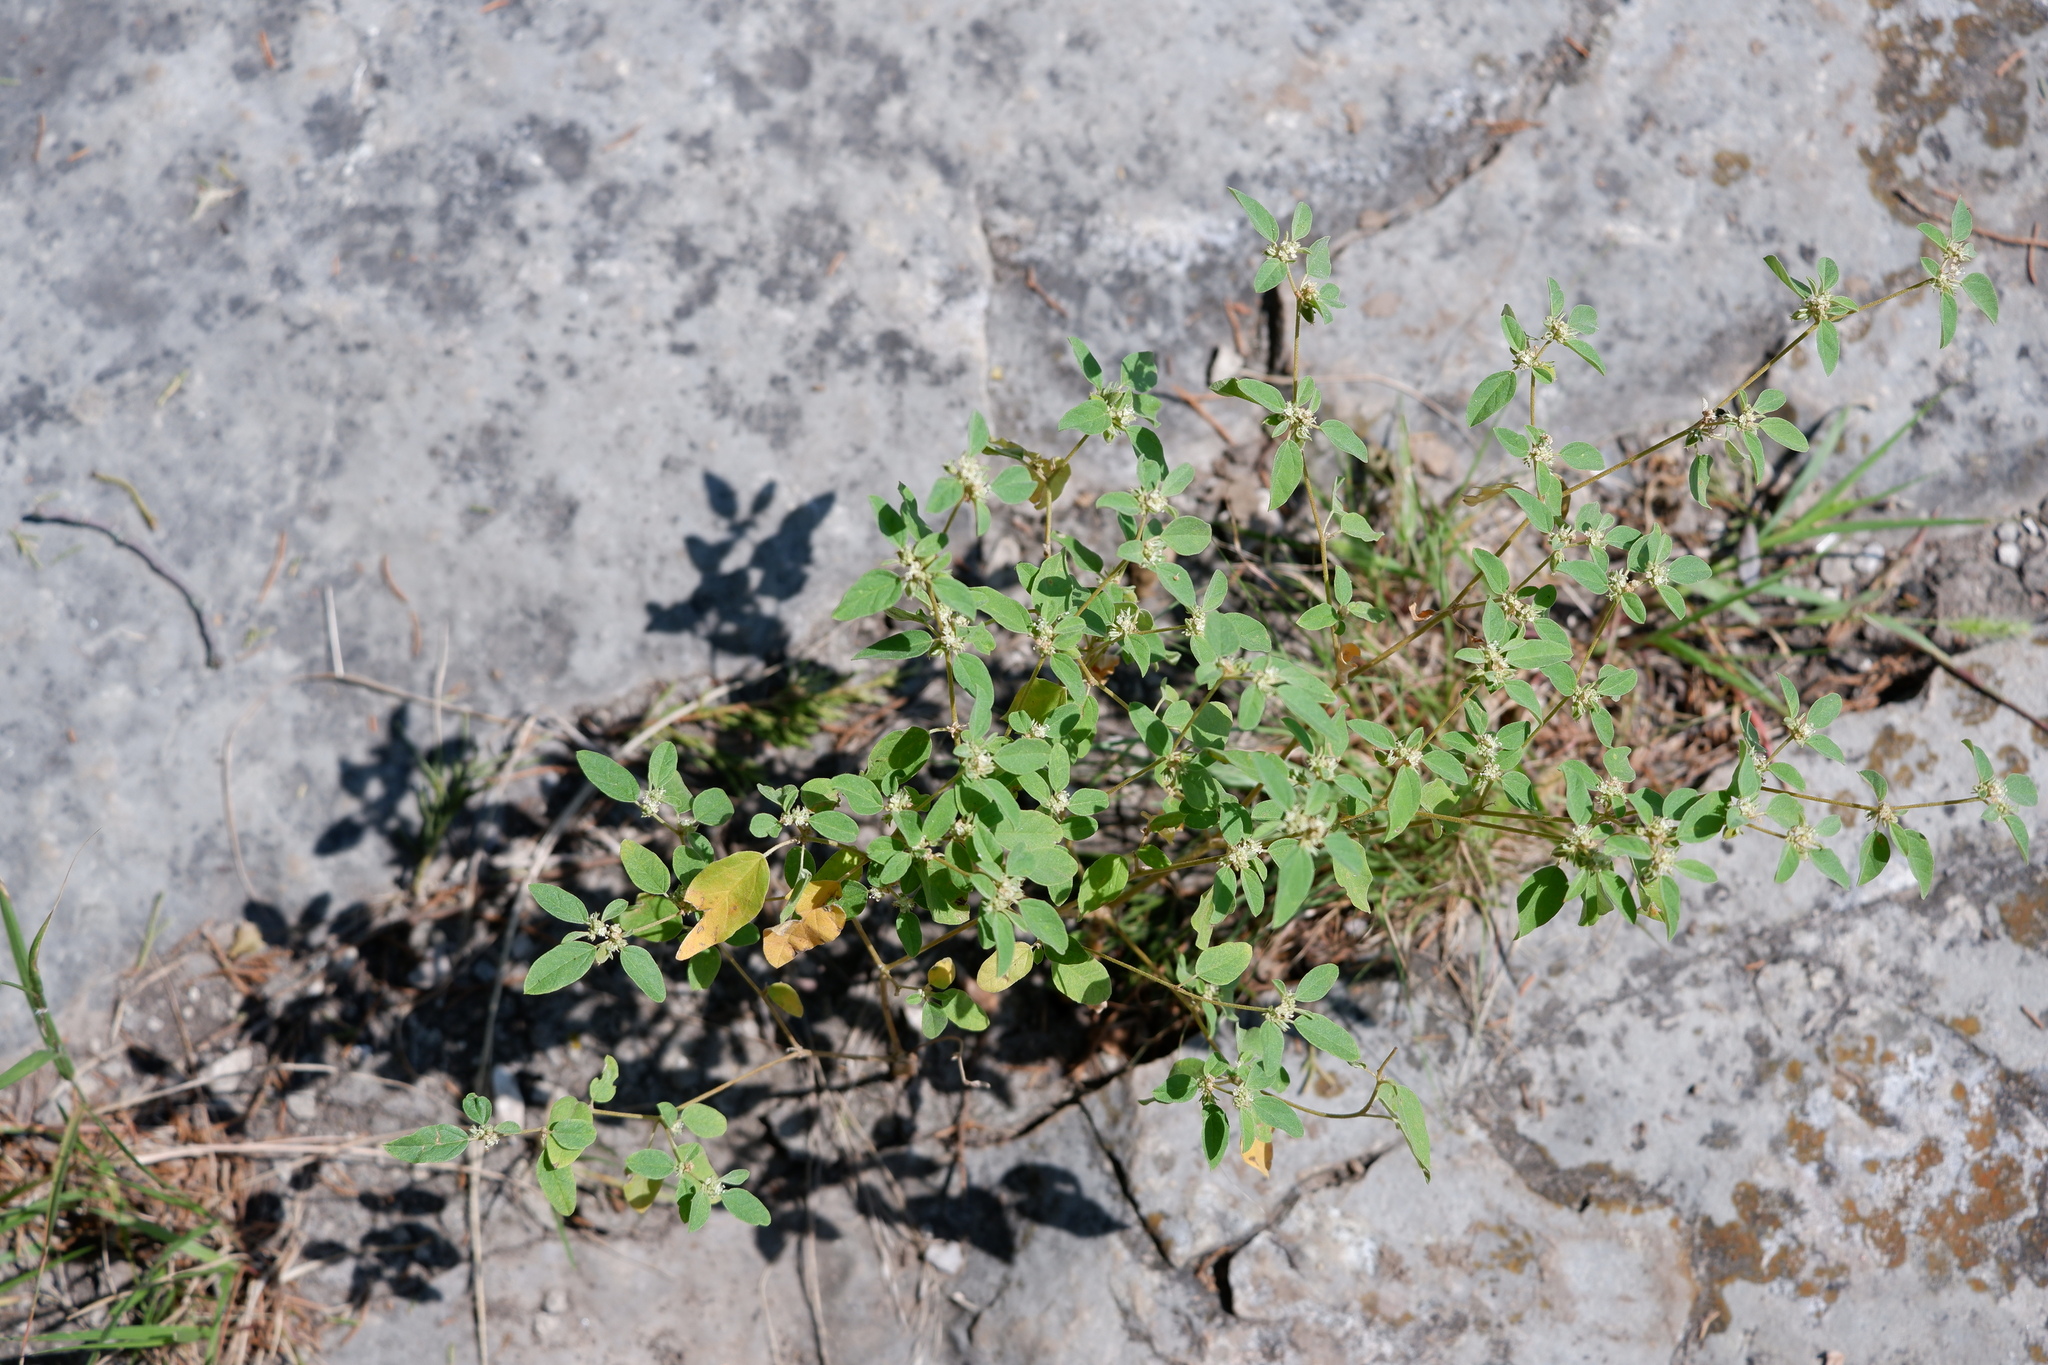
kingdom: Plantae
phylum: Tracheophyta
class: Magnoliopsida
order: Malpighiales
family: Euphorbiaceae
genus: Croton
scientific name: Croton monanthogynus
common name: One-seed croton
